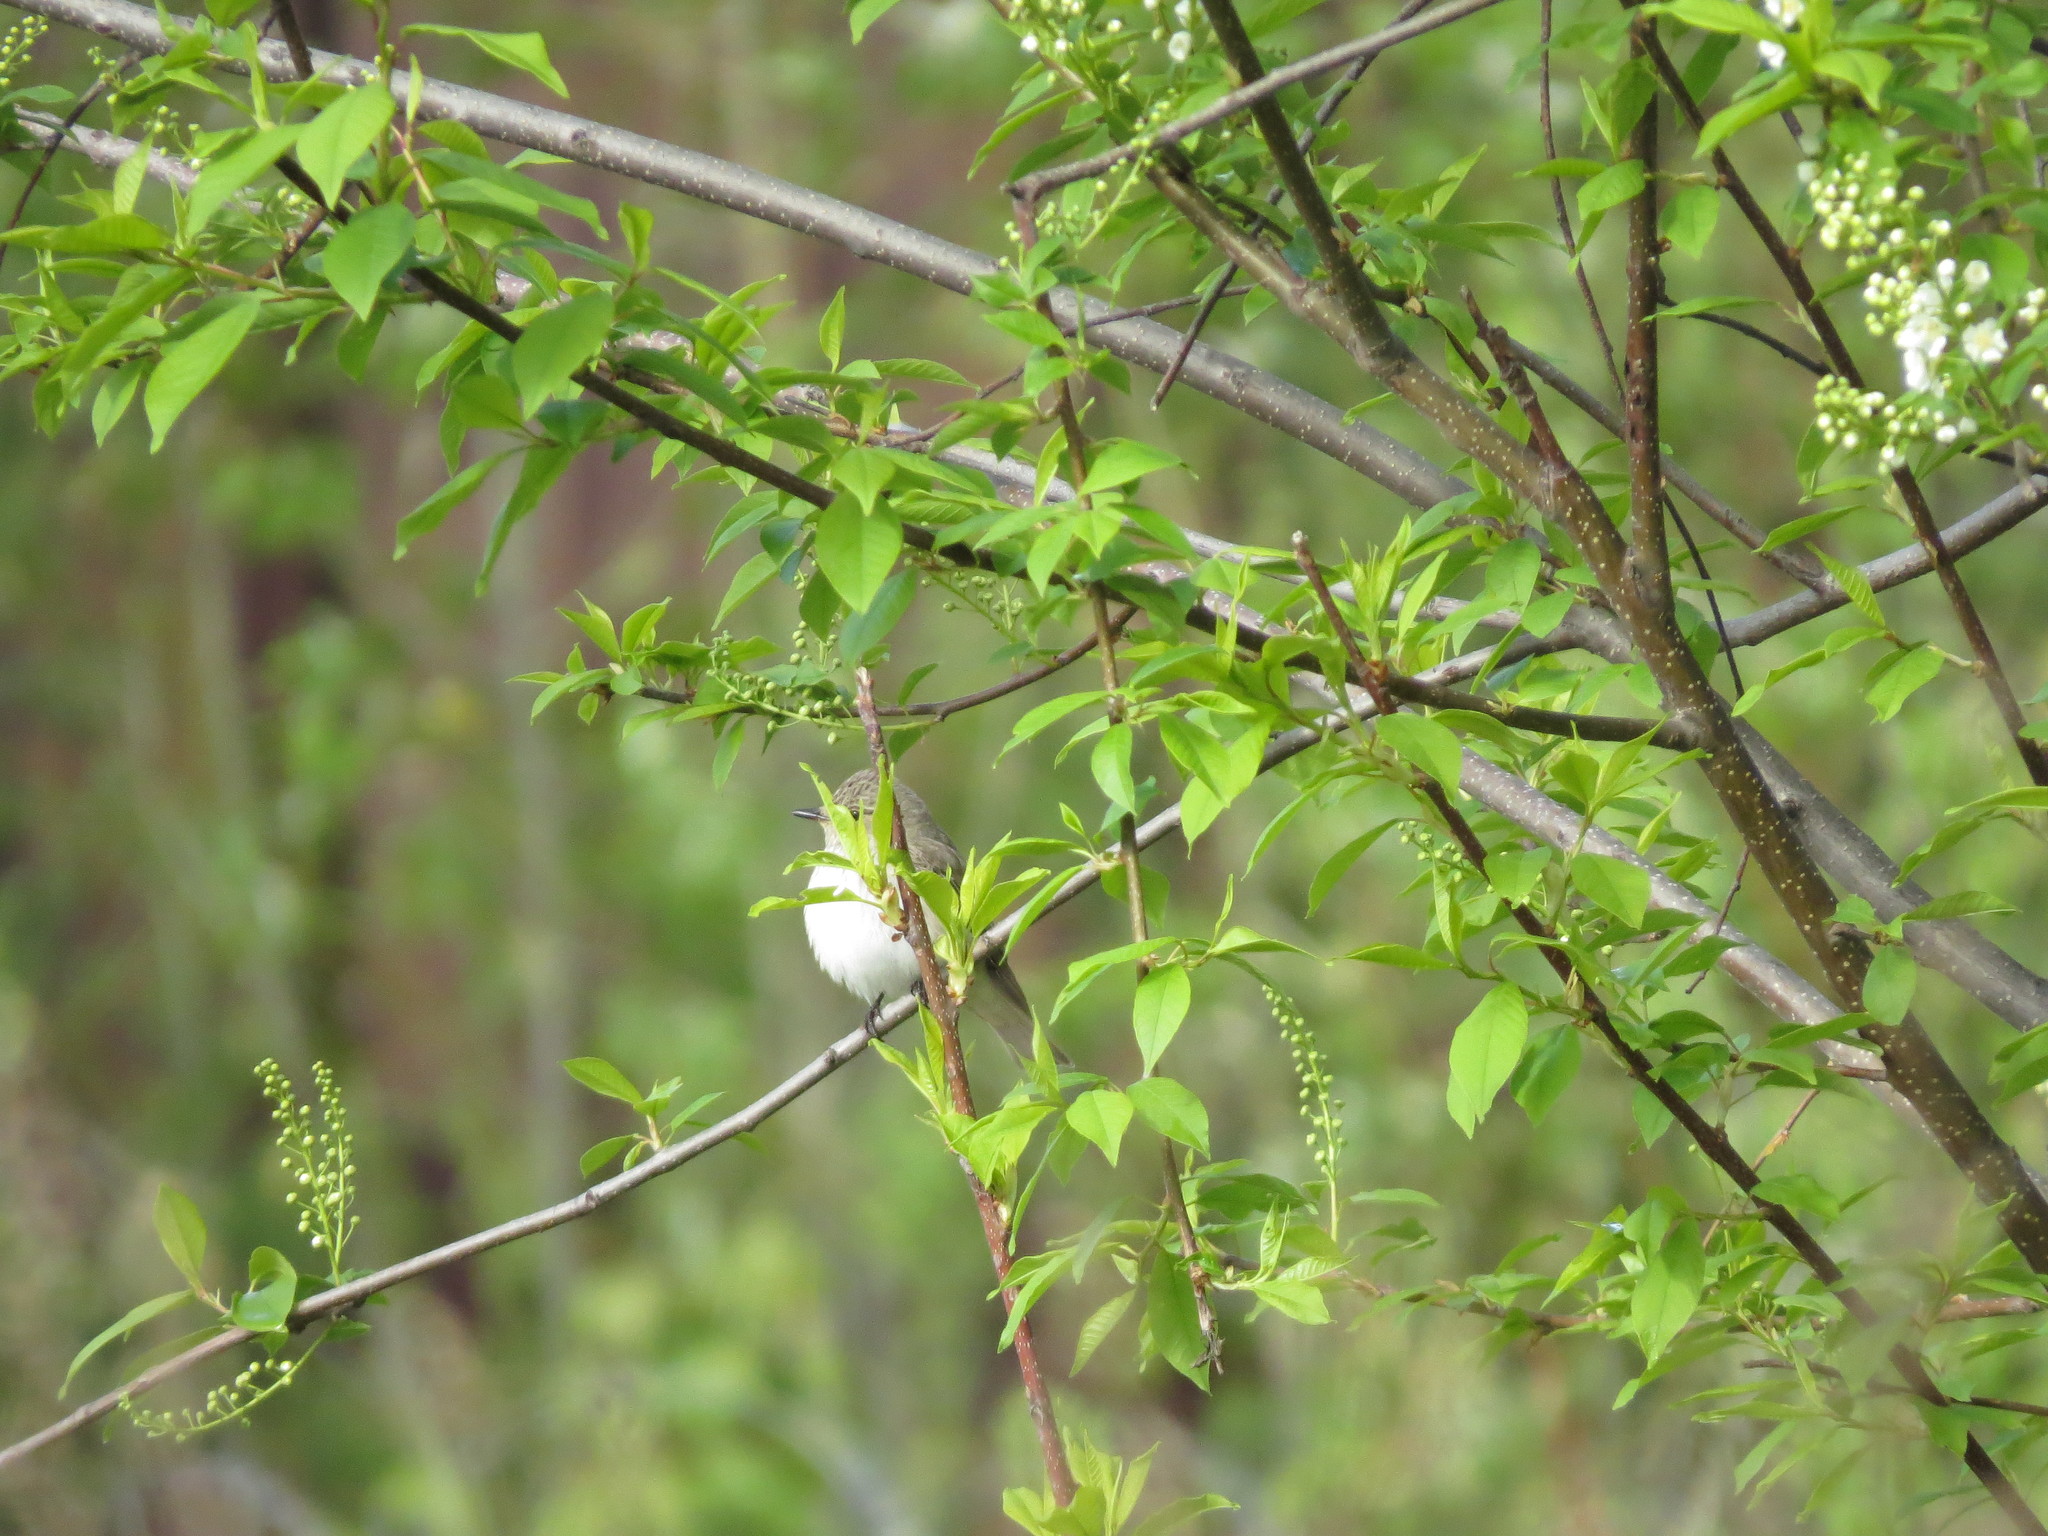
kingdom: Animalia
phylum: Chordata
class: Aves
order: Passeriformes
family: Muscicapidae
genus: Muscicapa
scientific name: Muscicapa striata
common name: Spotted flycatcher
